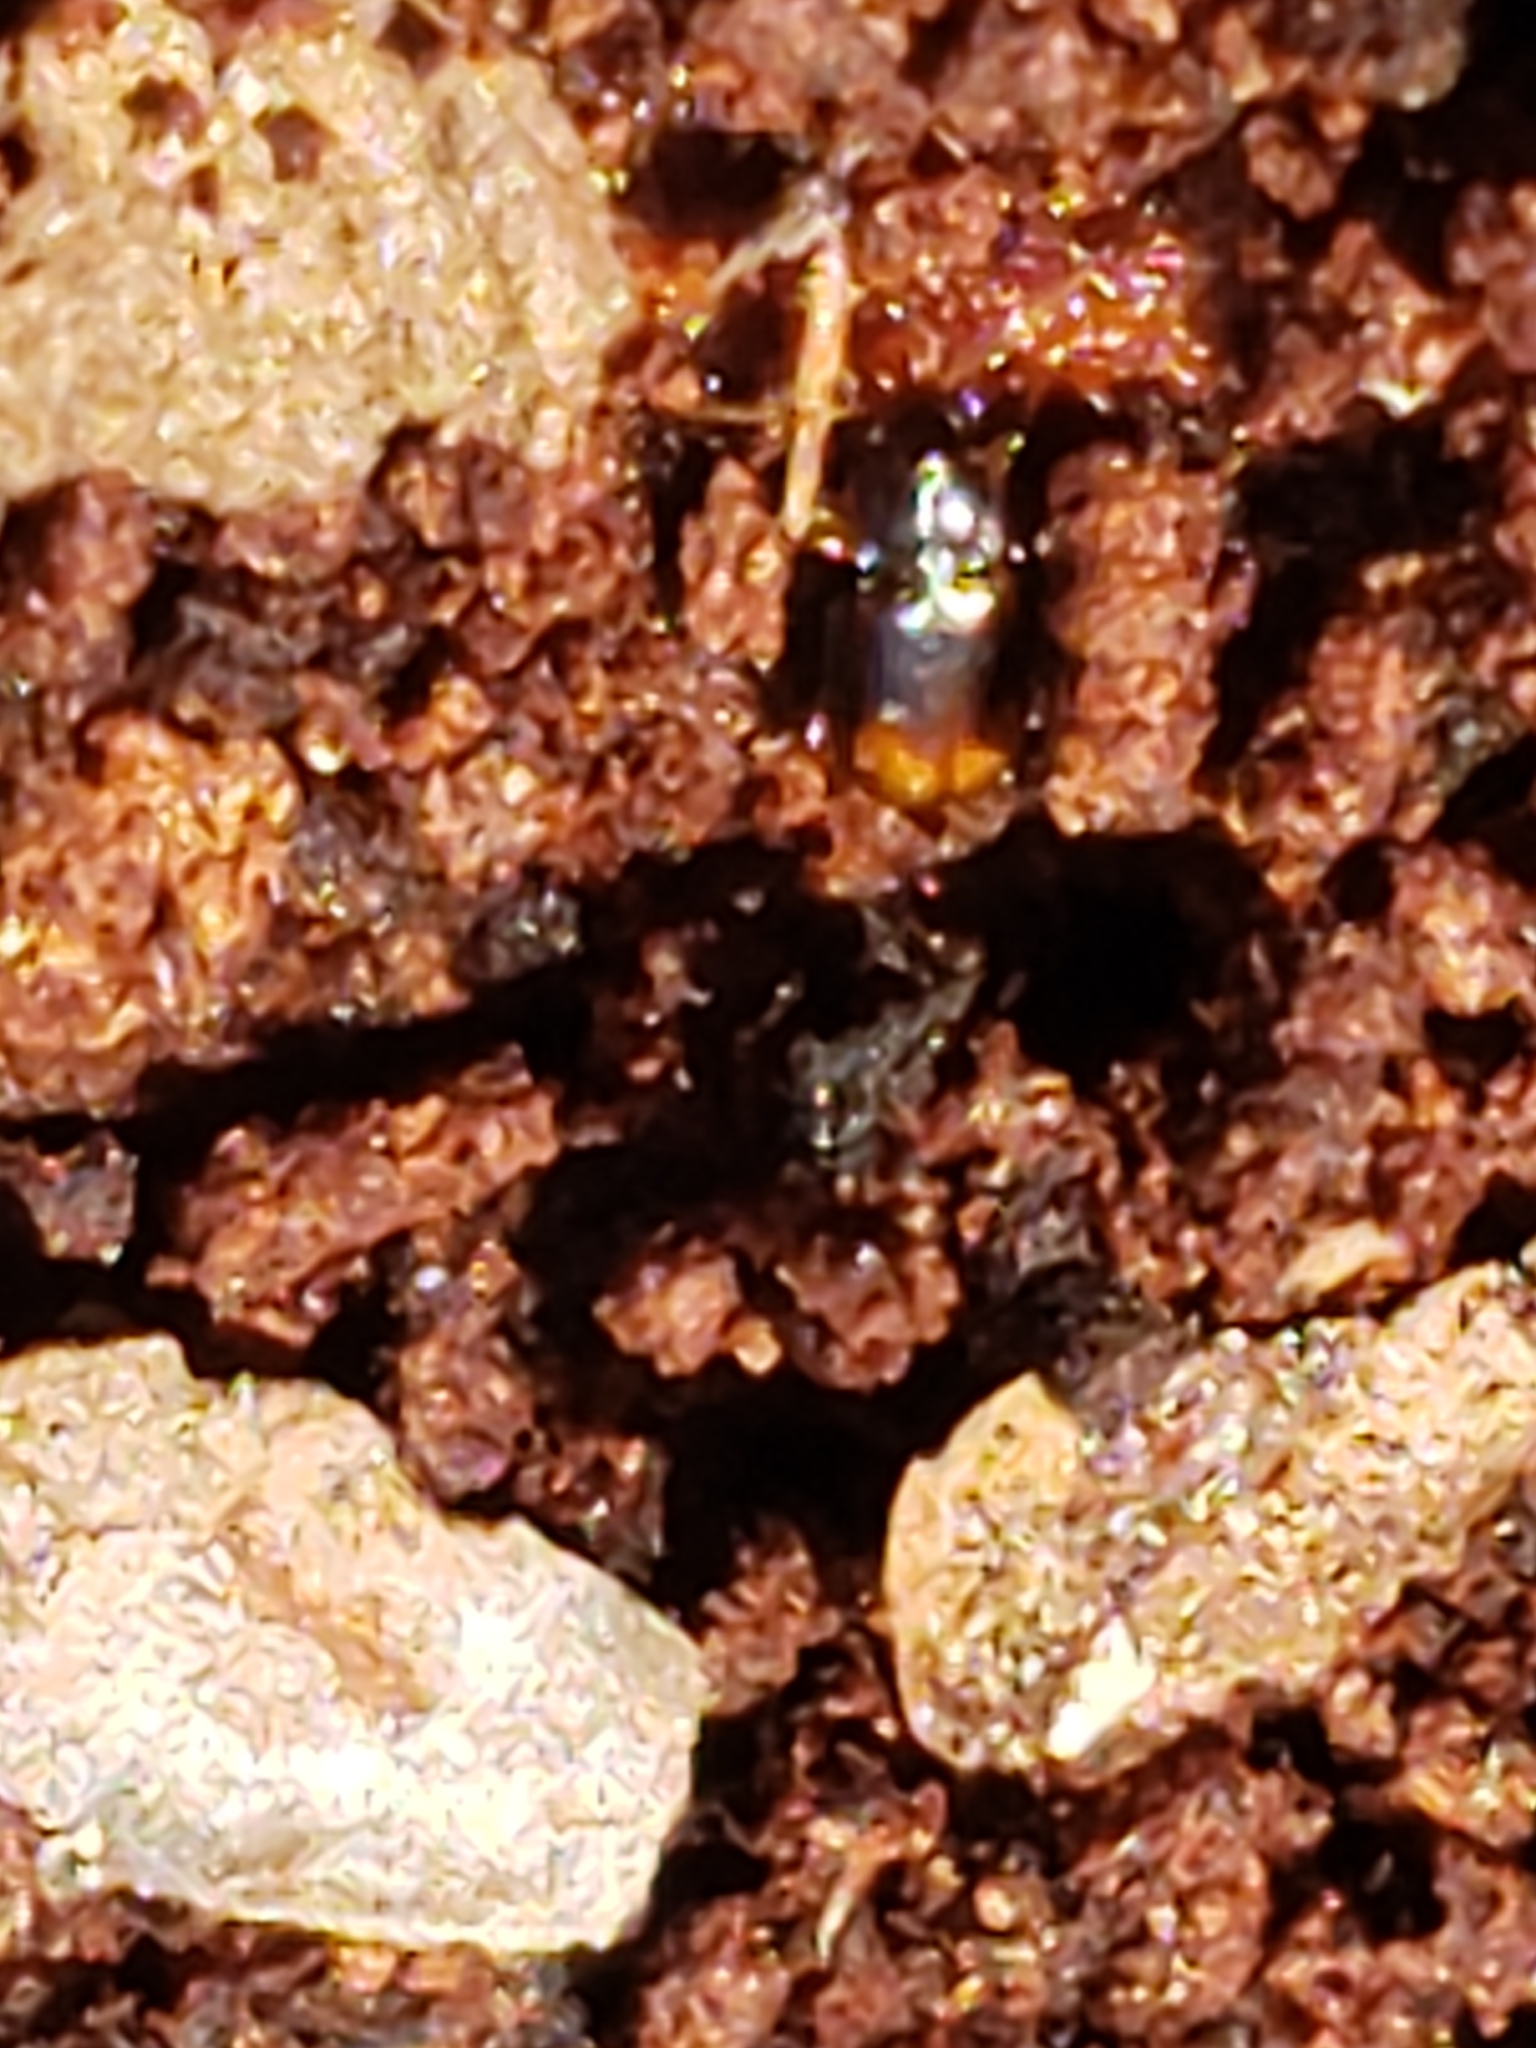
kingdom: Animalia
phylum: Arthropoda
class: Insecta
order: Coleoptera
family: Carabidae
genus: Mioptachys
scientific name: Mioptachys flavicauda
